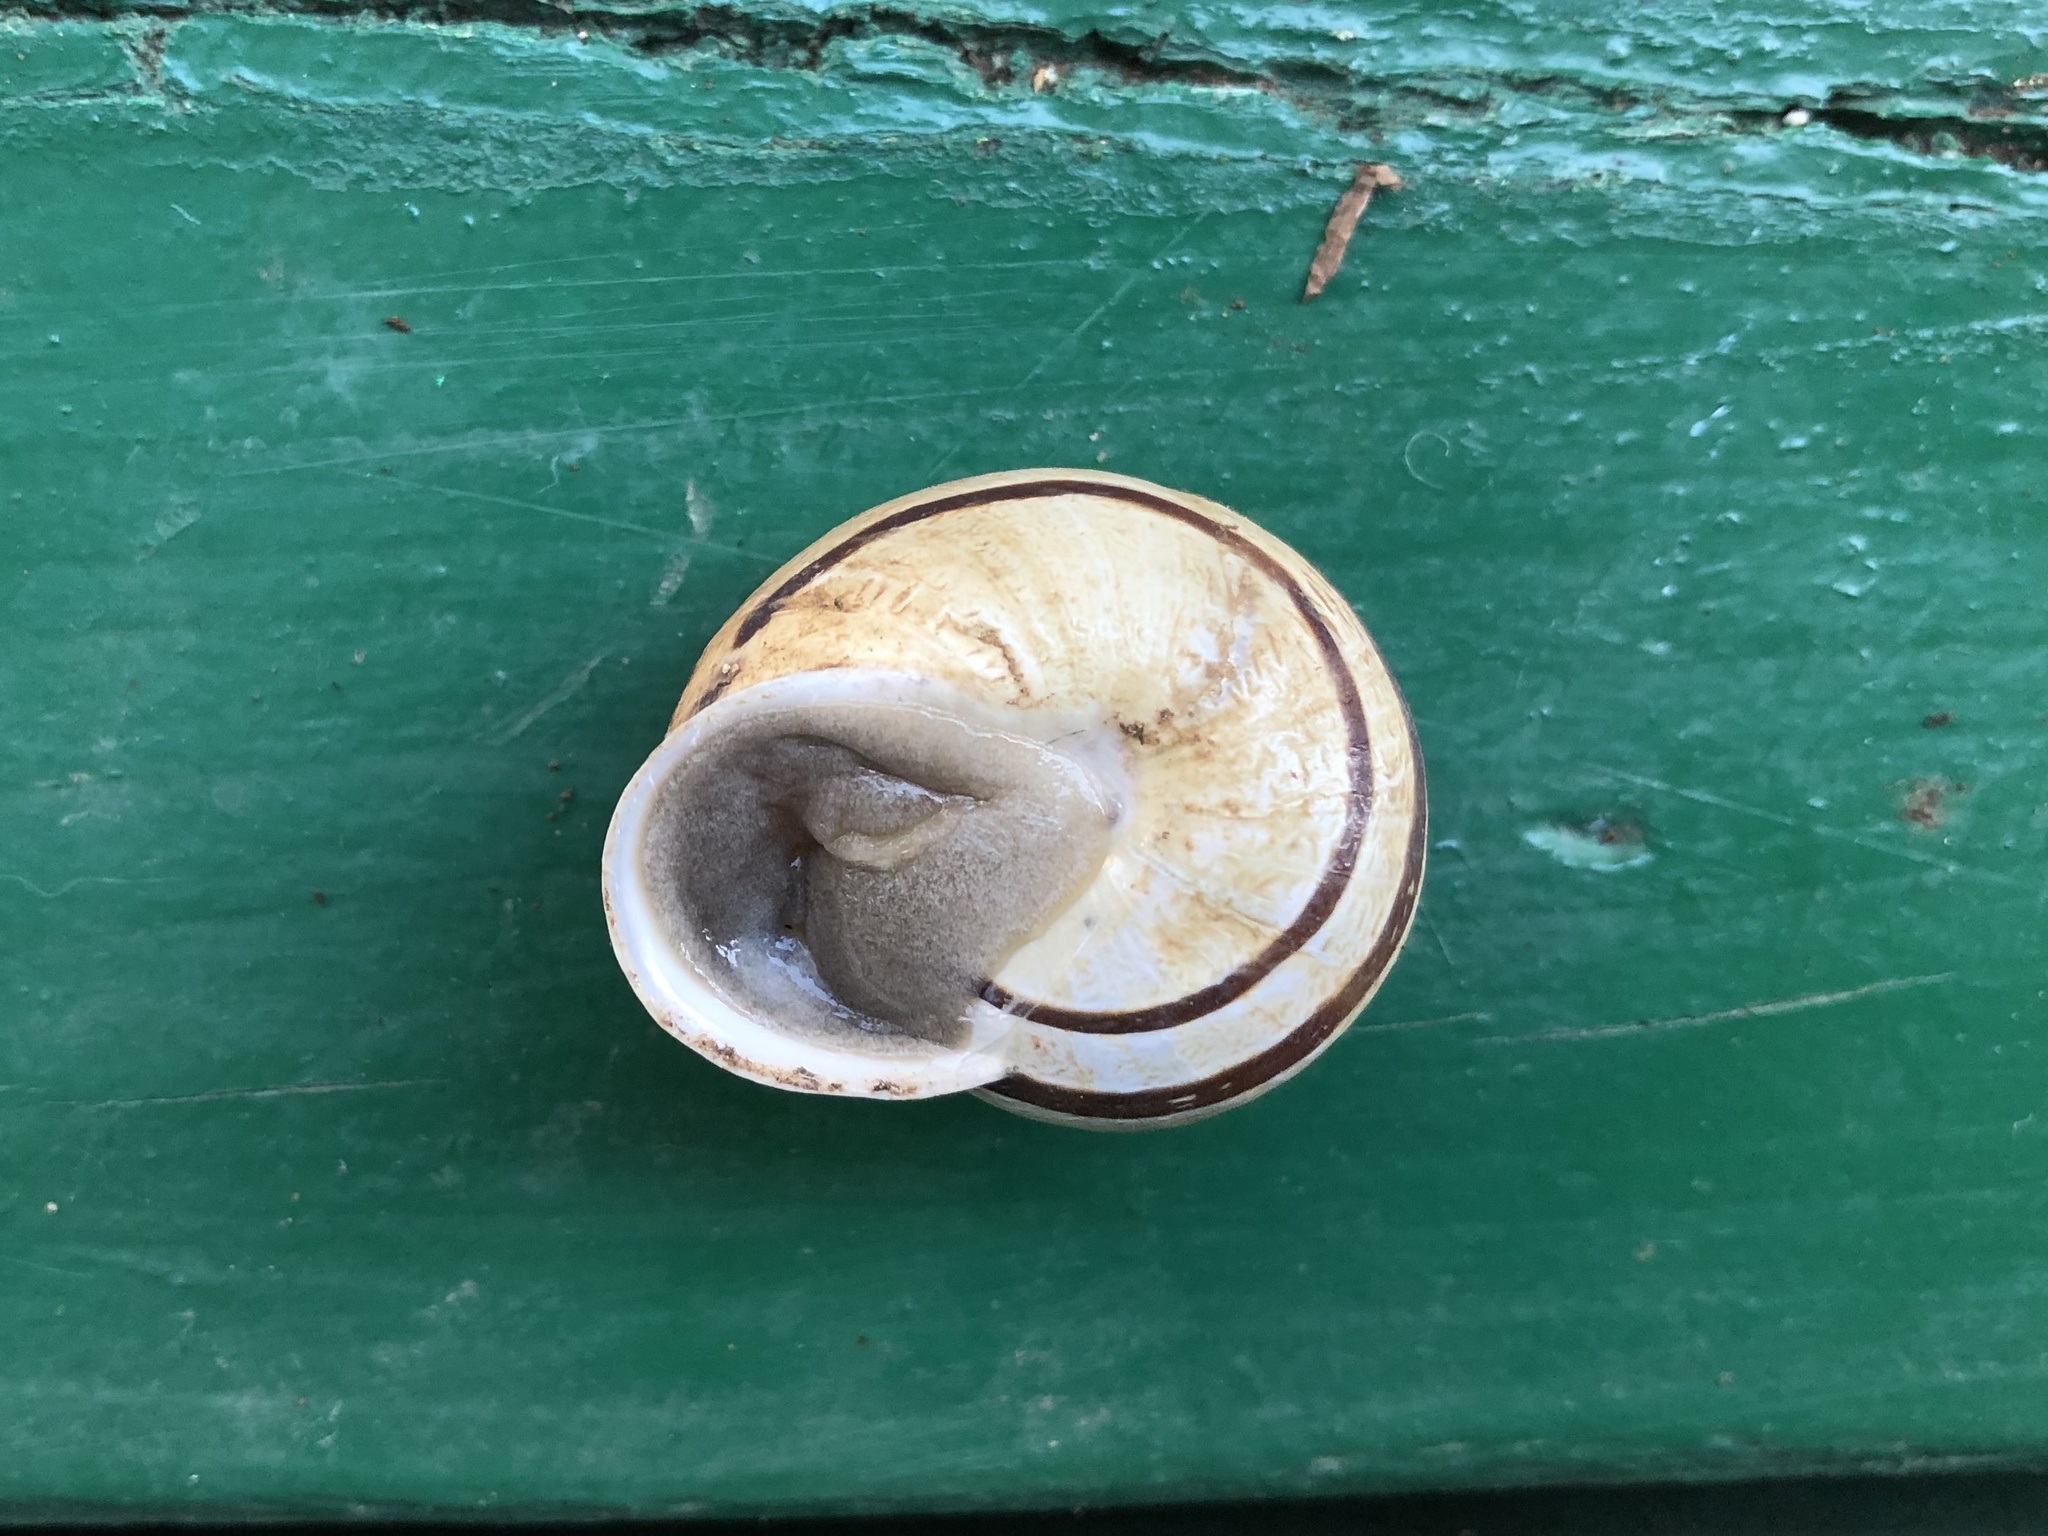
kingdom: Animalia
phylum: Mollusca
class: Gastropoda
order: Stylommatophora
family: Helicidae
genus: Eobania
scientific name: Eobania vermiculata
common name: Chocolateband snail
